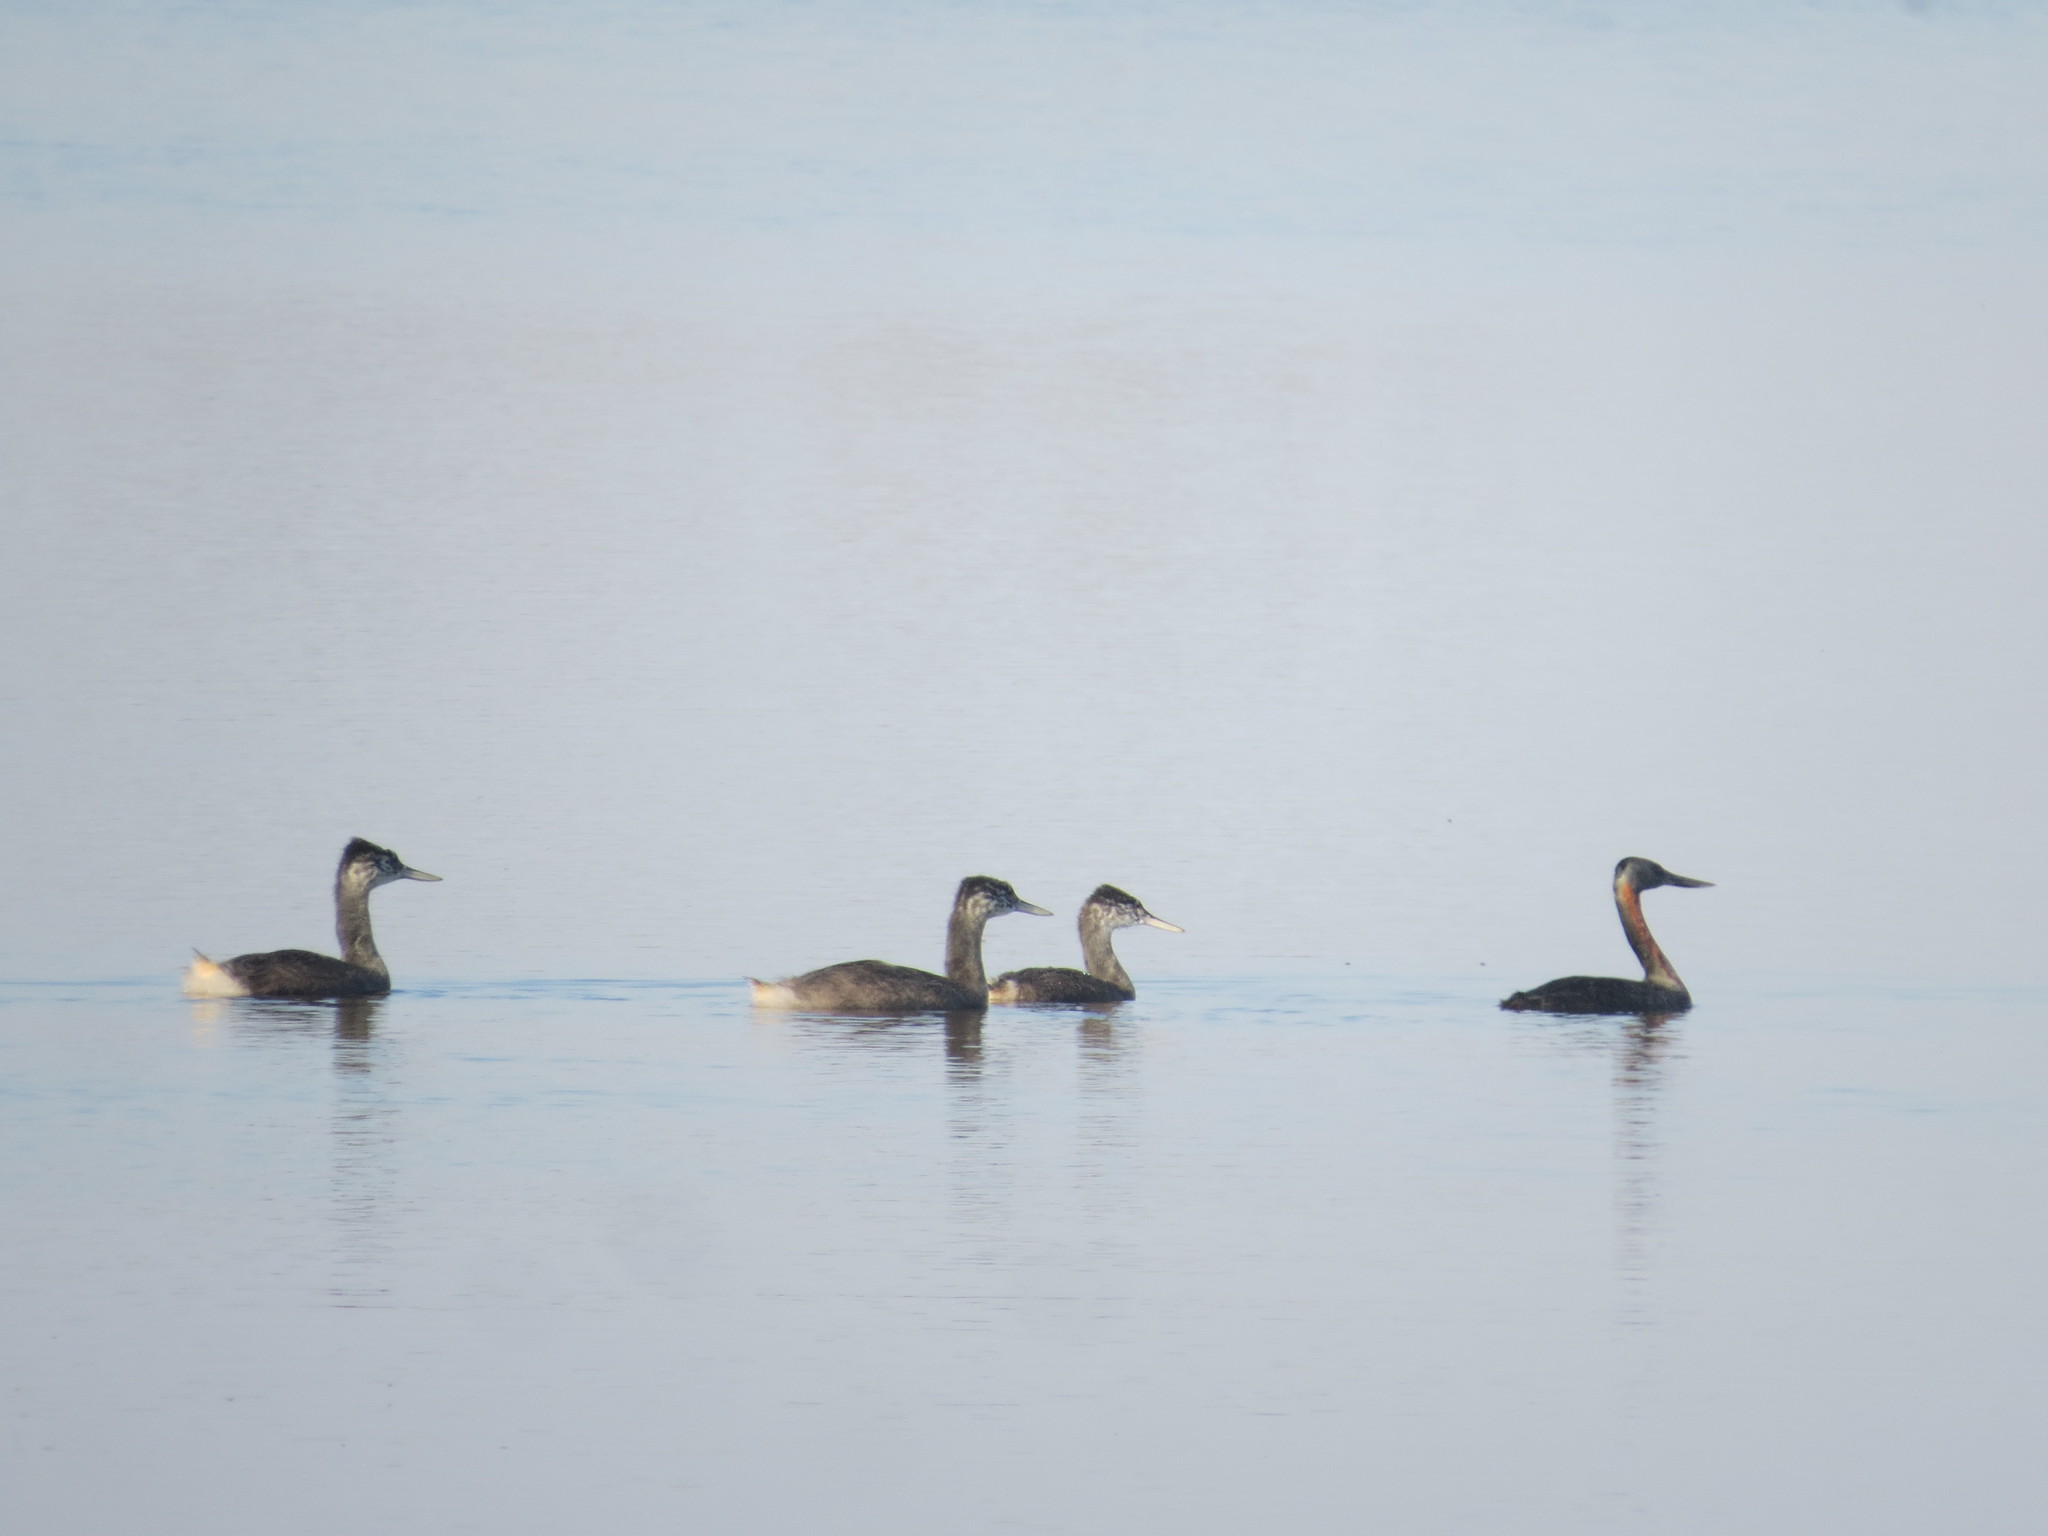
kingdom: Animalia
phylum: Chordata
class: Aves
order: Podicipediformes
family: Podicipedidae
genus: Podiceps
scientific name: Podiceps major
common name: Great grebe
